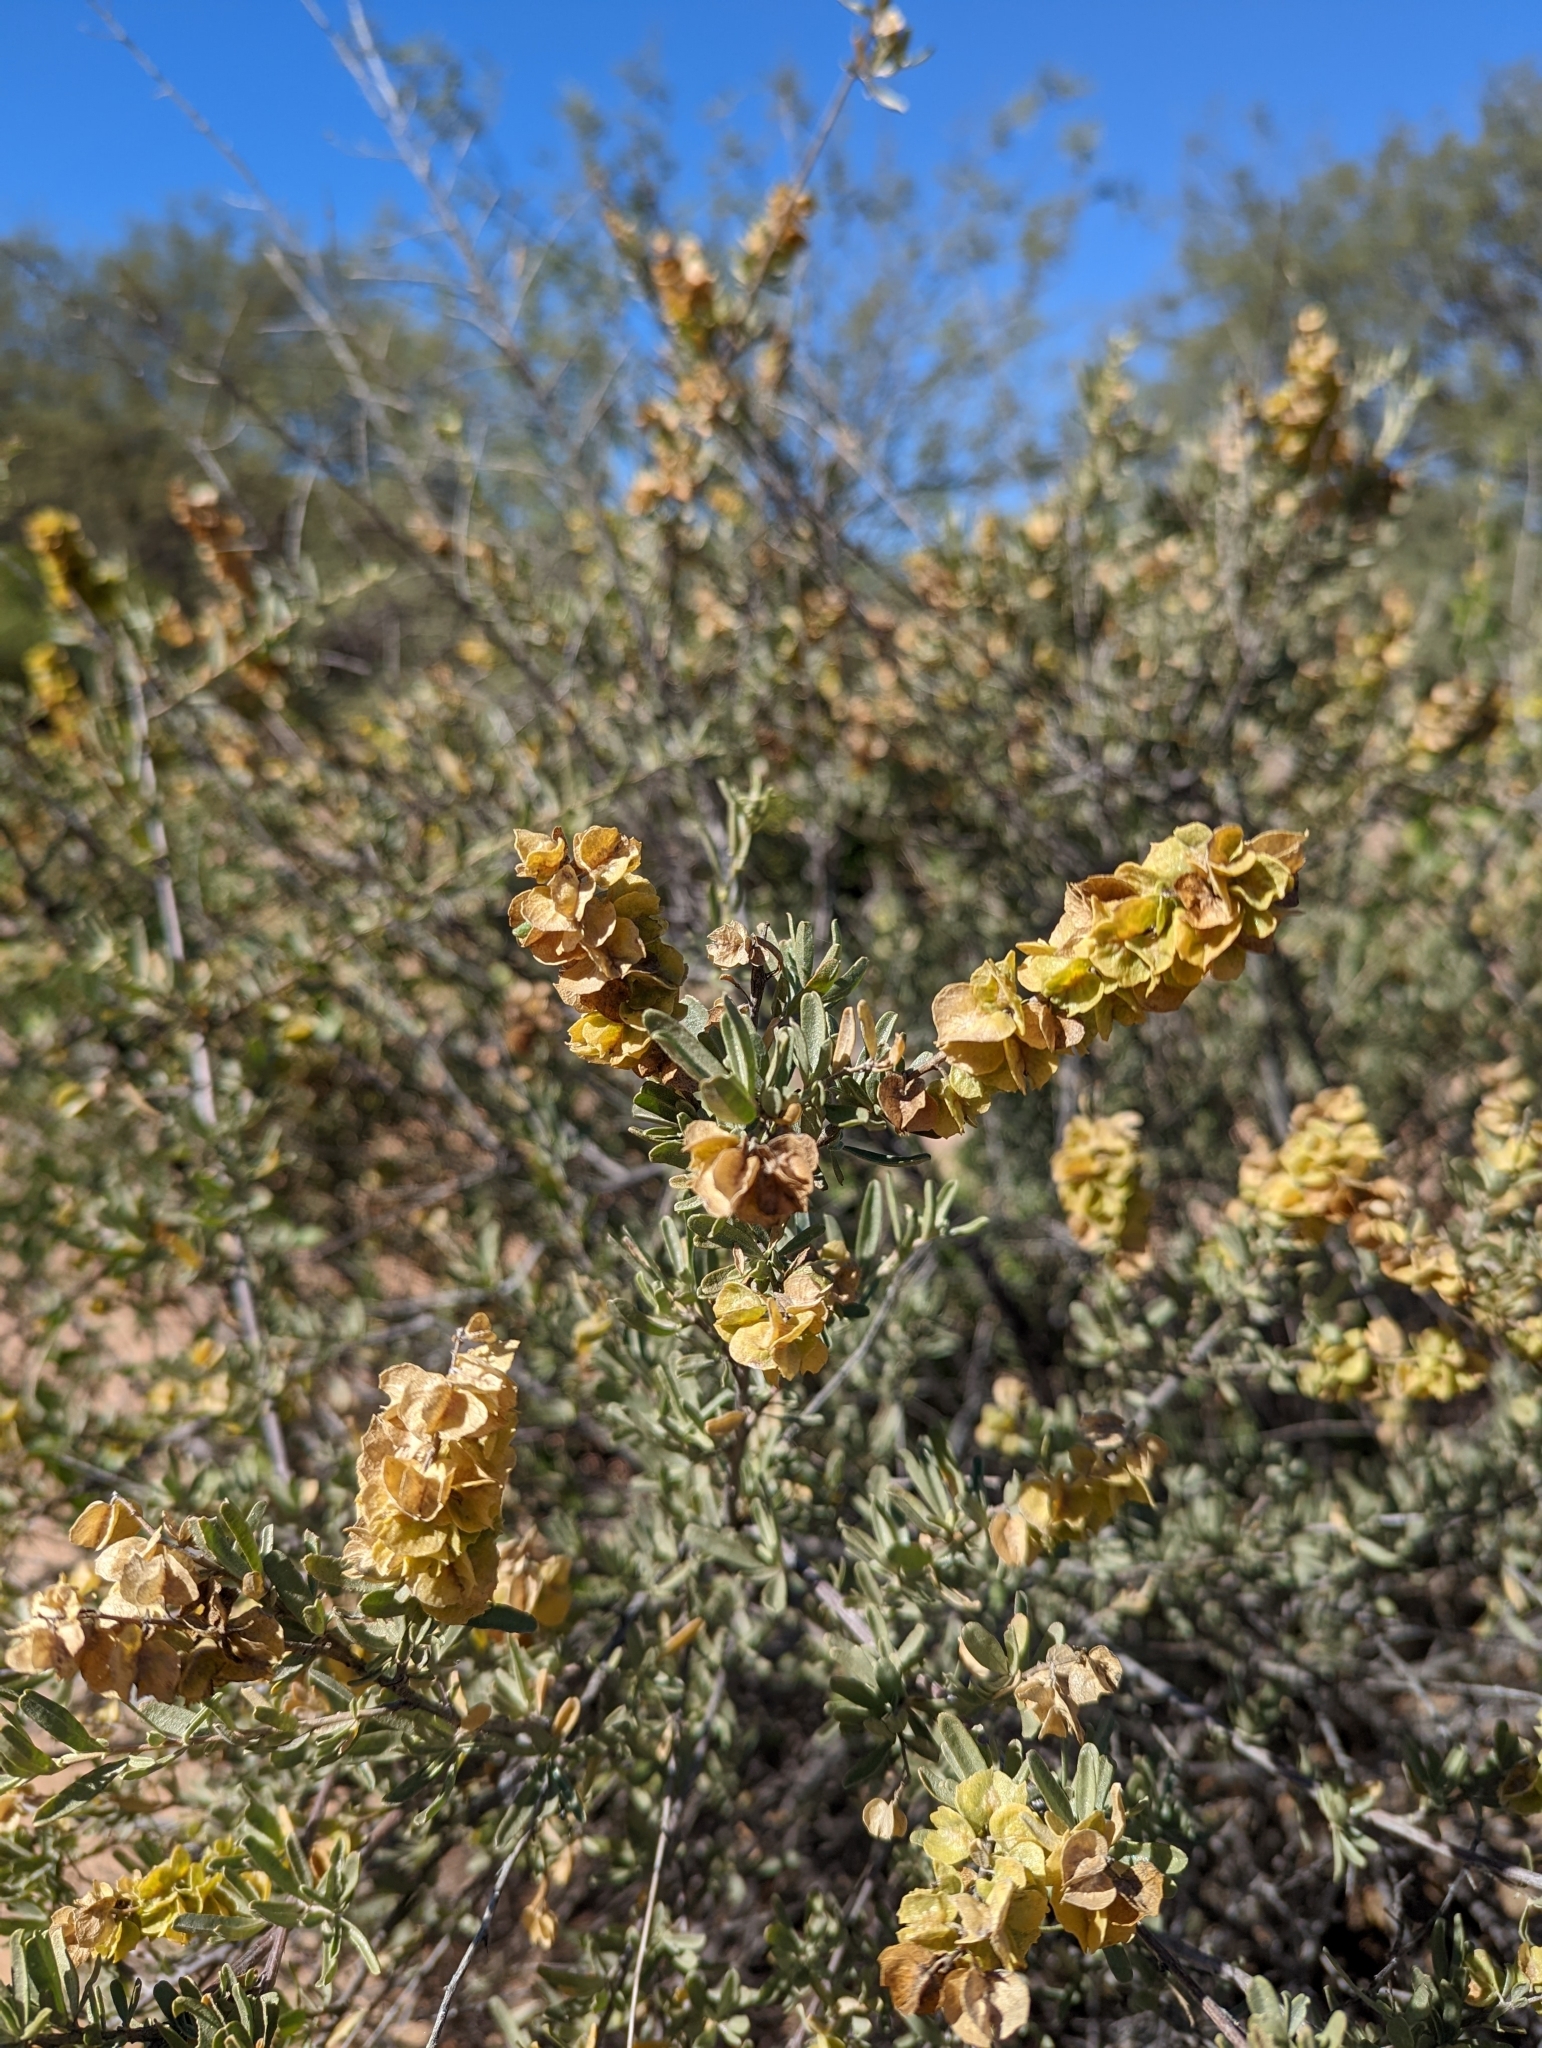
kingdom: Plantae
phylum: Tracheophyta
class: Magnoliopsida
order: Caryophyllales
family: Amaranthaceae
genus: Atriplex
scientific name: Atriplex canescens
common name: Four-wing saltbush
